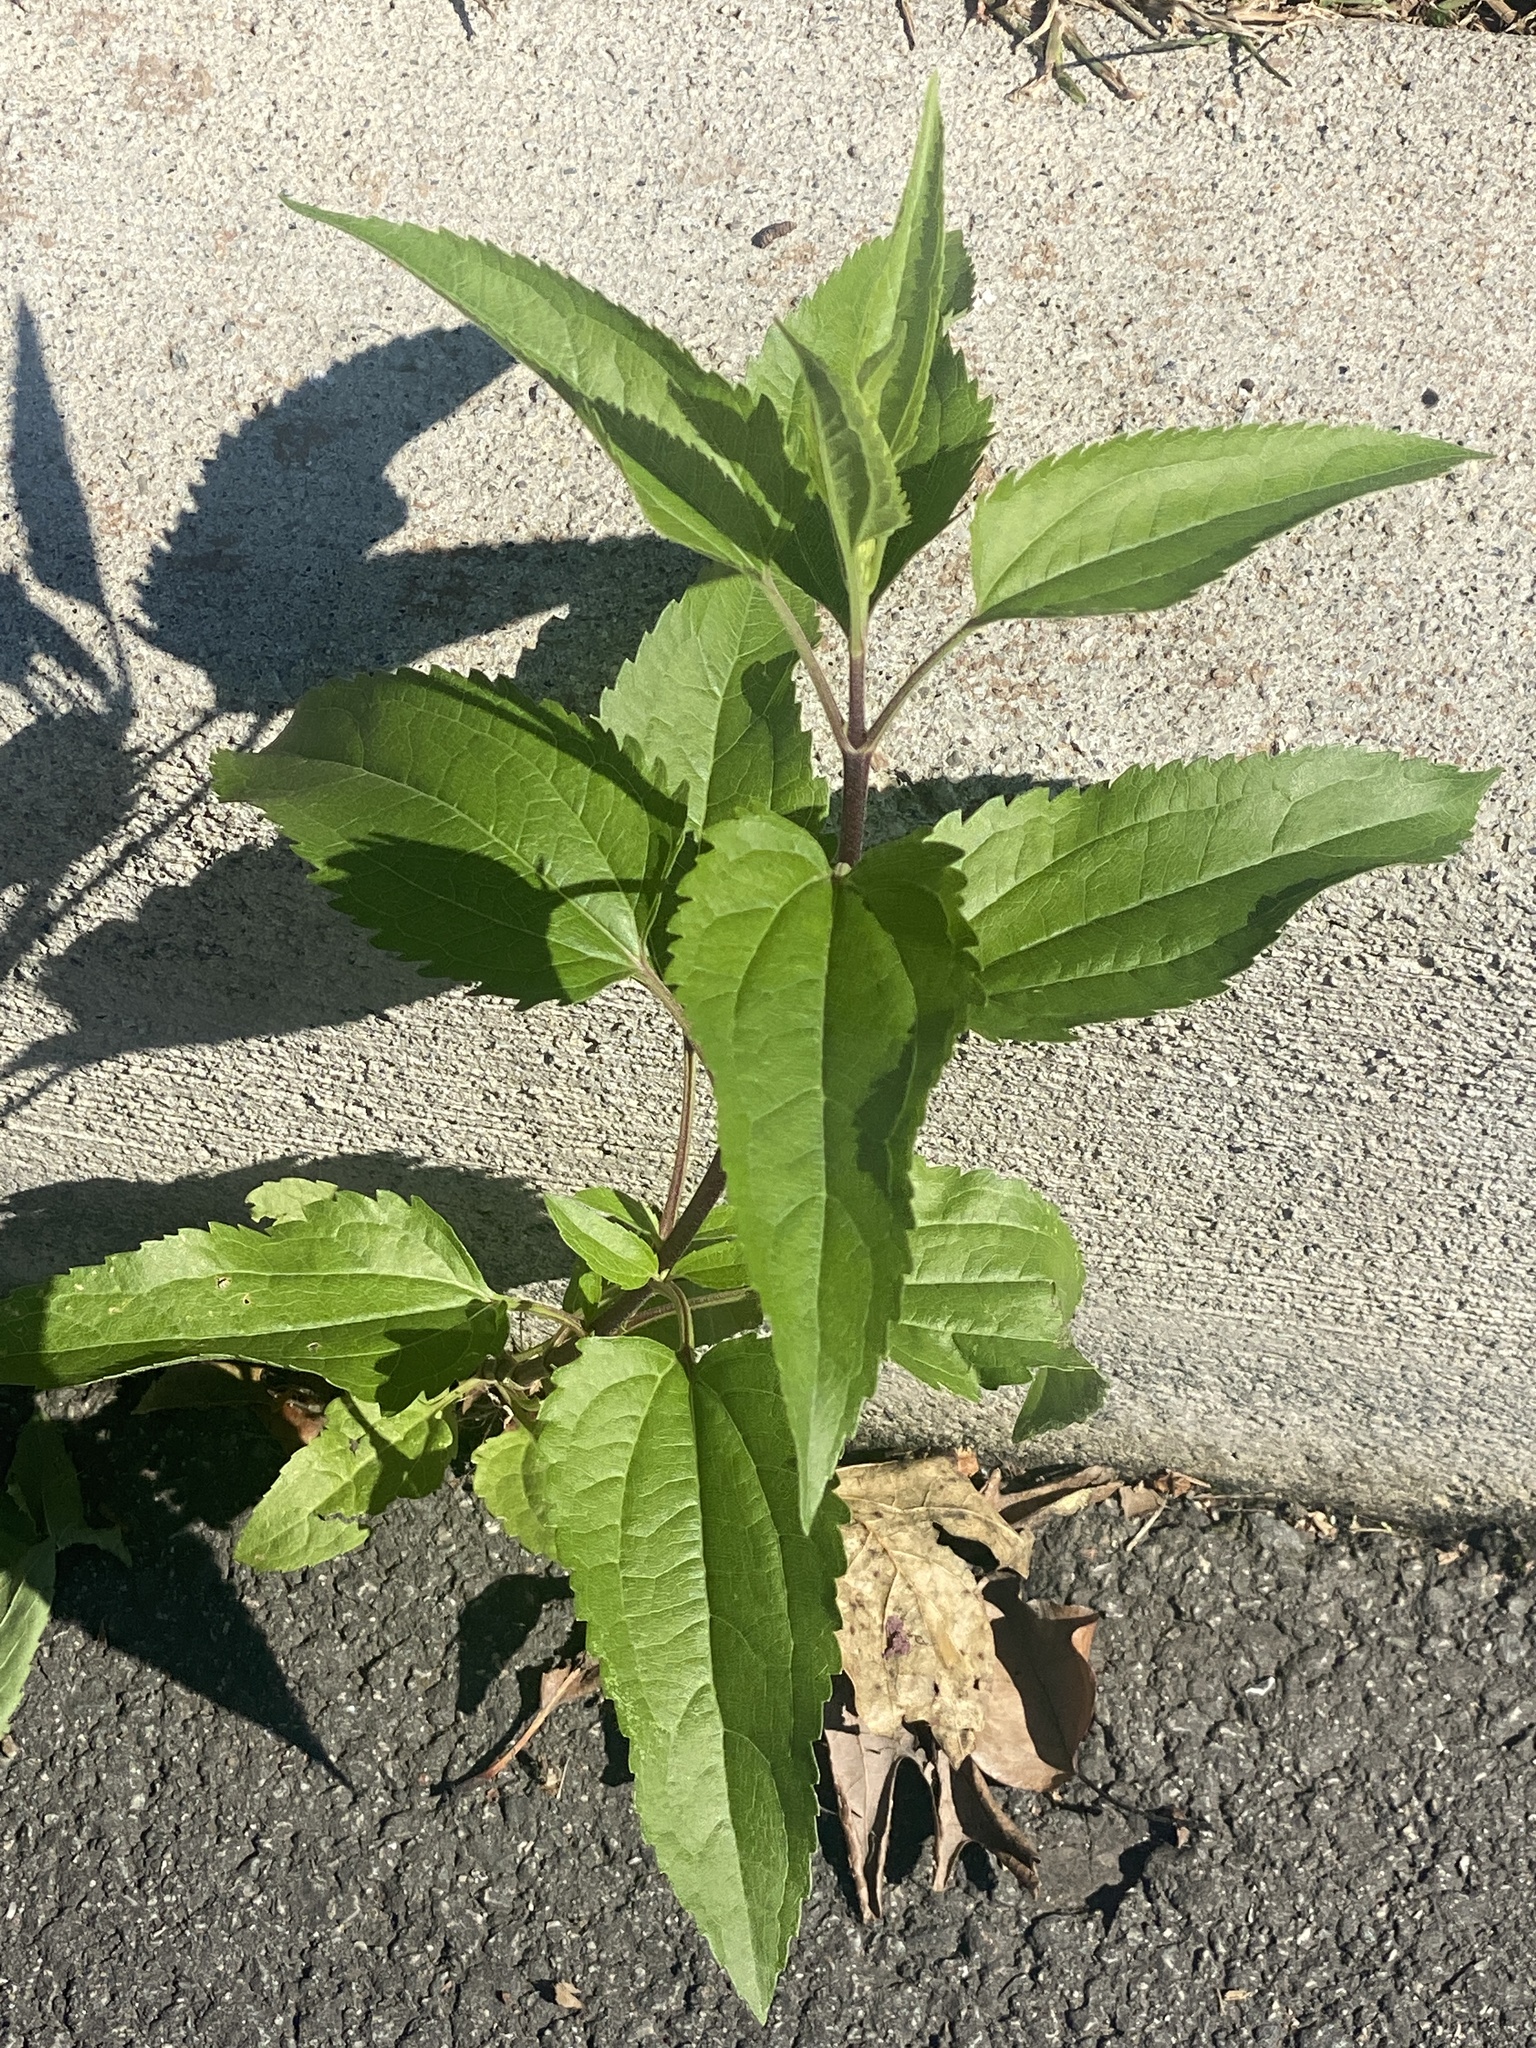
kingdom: Plantae
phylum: Tracheophyta
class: Magnoliopsida
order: Asterales
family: Asteraceae
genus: Eupatorium
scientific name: Eupatorium serotinum
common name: Late boneset
